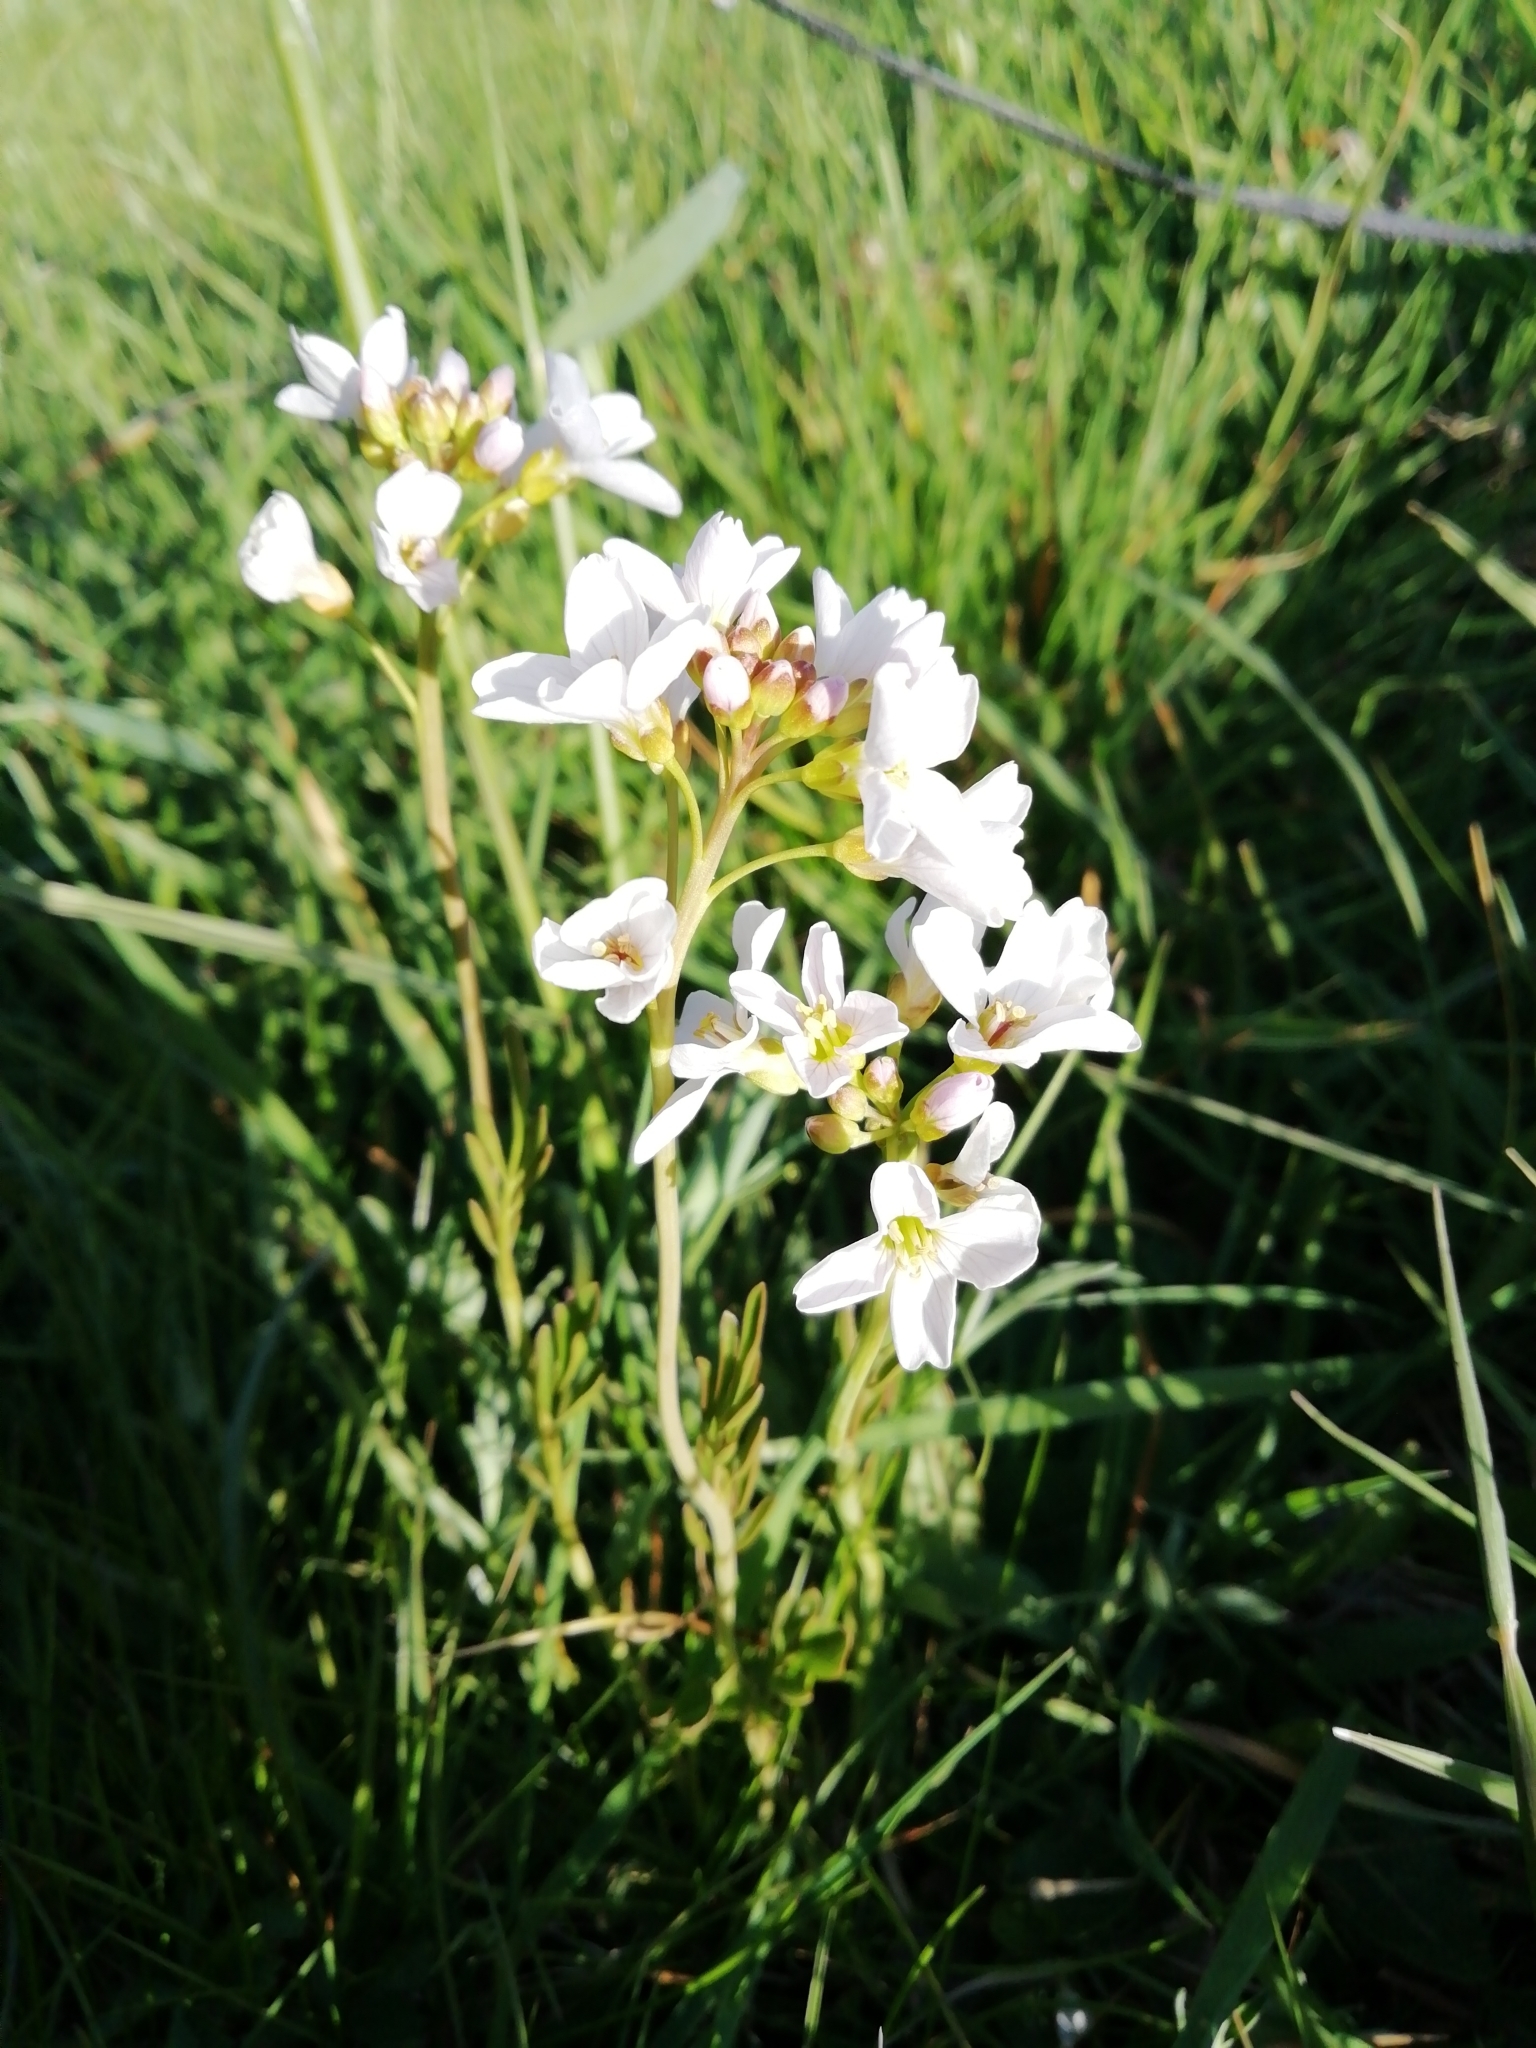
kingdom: Plantae
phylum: Tracheophyta
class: Magnoliopsida
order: Brassicales
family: Brassicaceae
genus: Cardamine
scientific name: Cardamine pratensis
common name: Cuckoo flower
